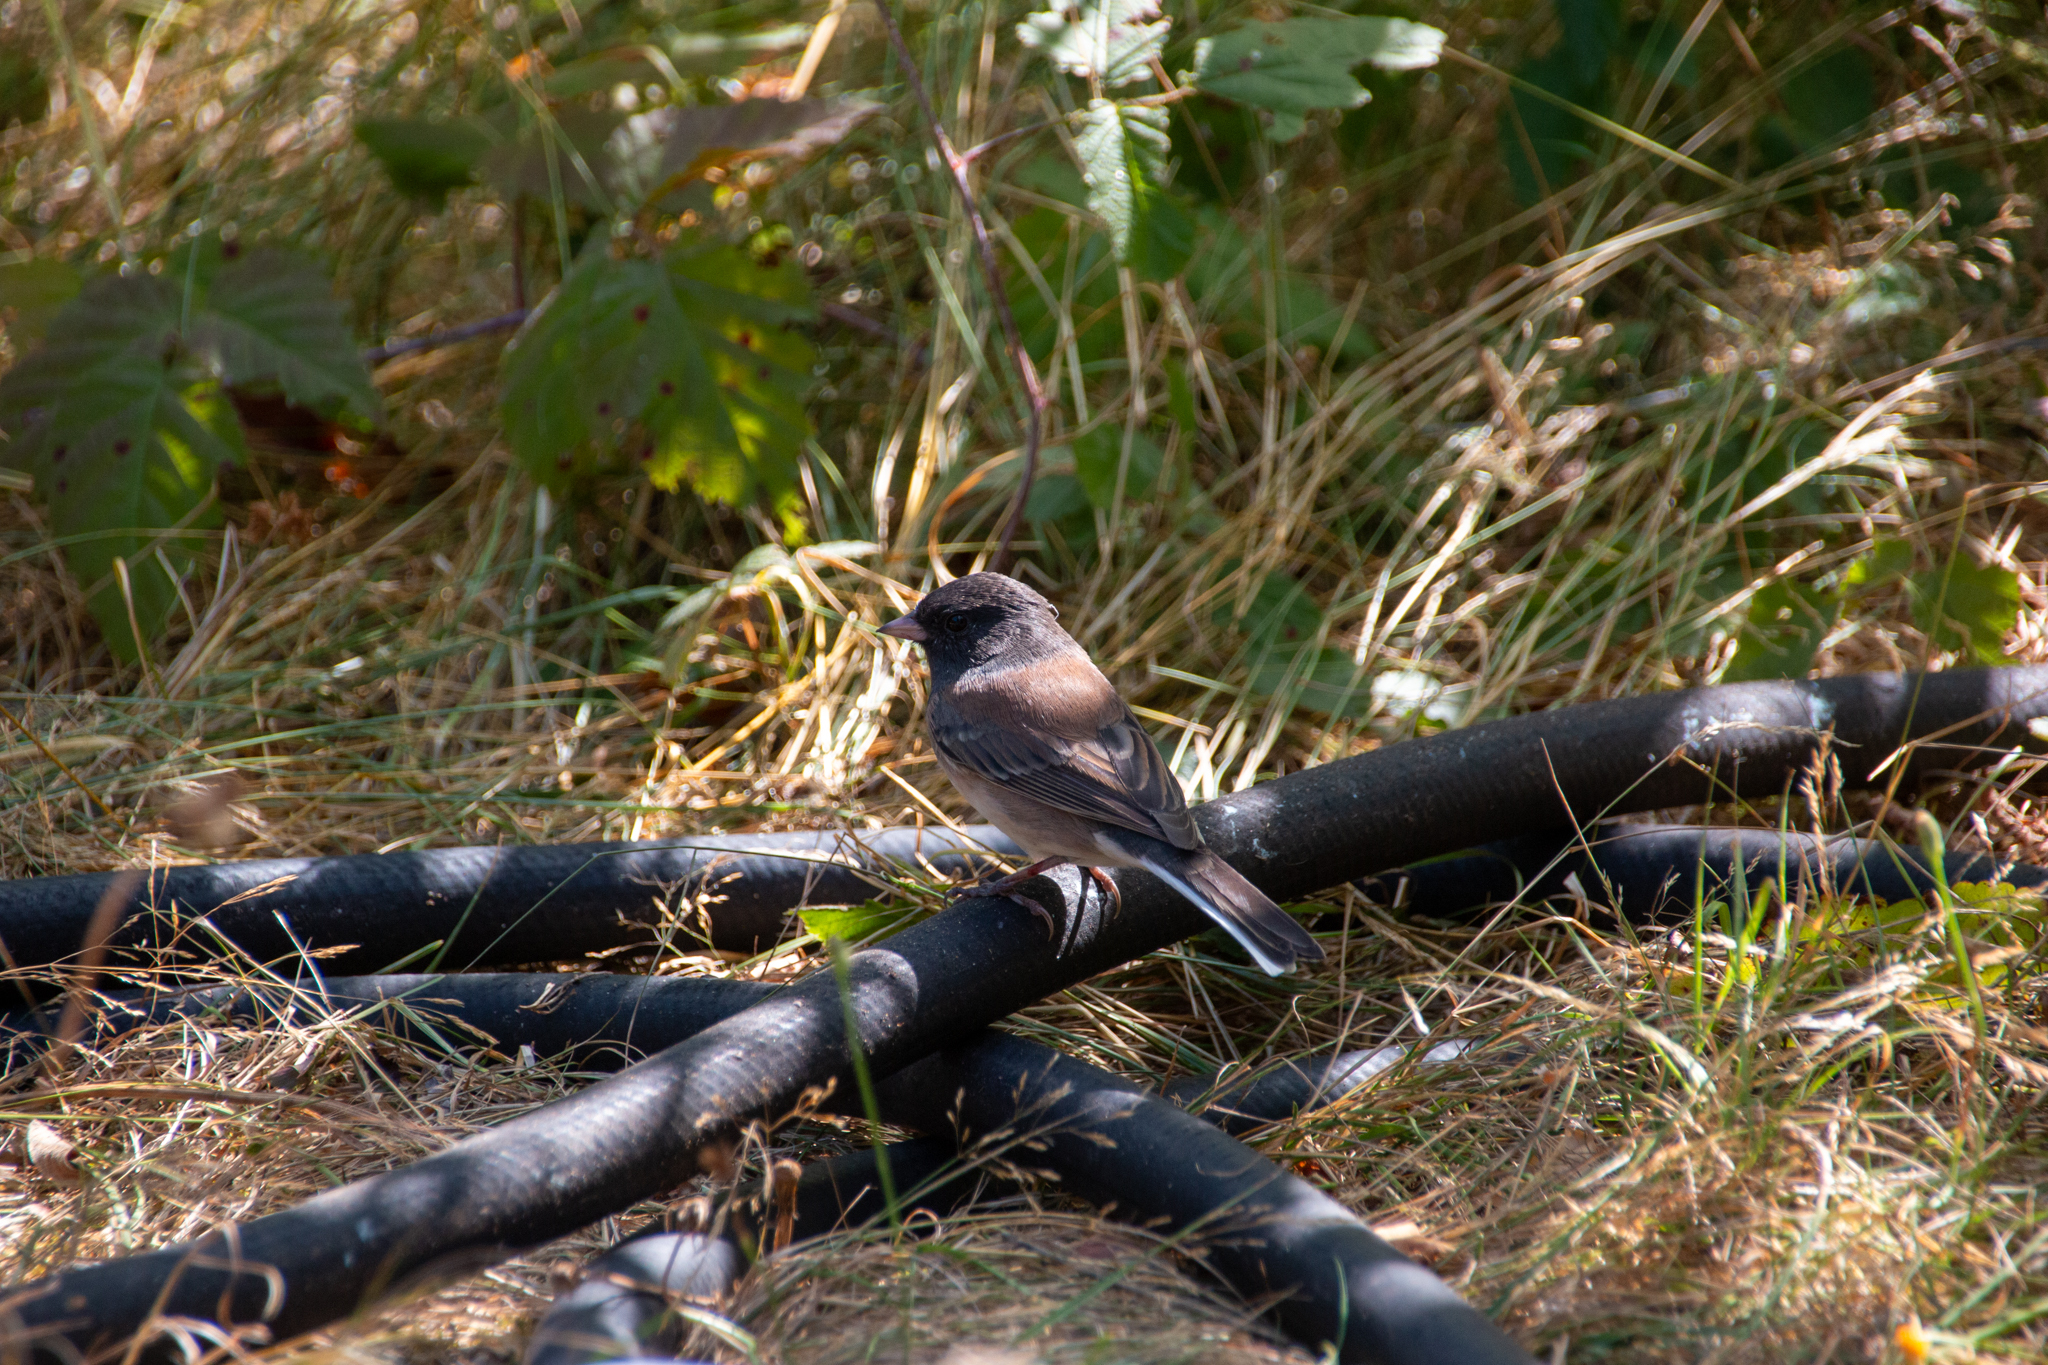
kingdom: Animalia
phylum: Chordata
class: Aves
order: Passeriformes
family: Passerellidae
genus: Junco
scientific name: Junco hyemalis
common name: Dark-eyed junco
